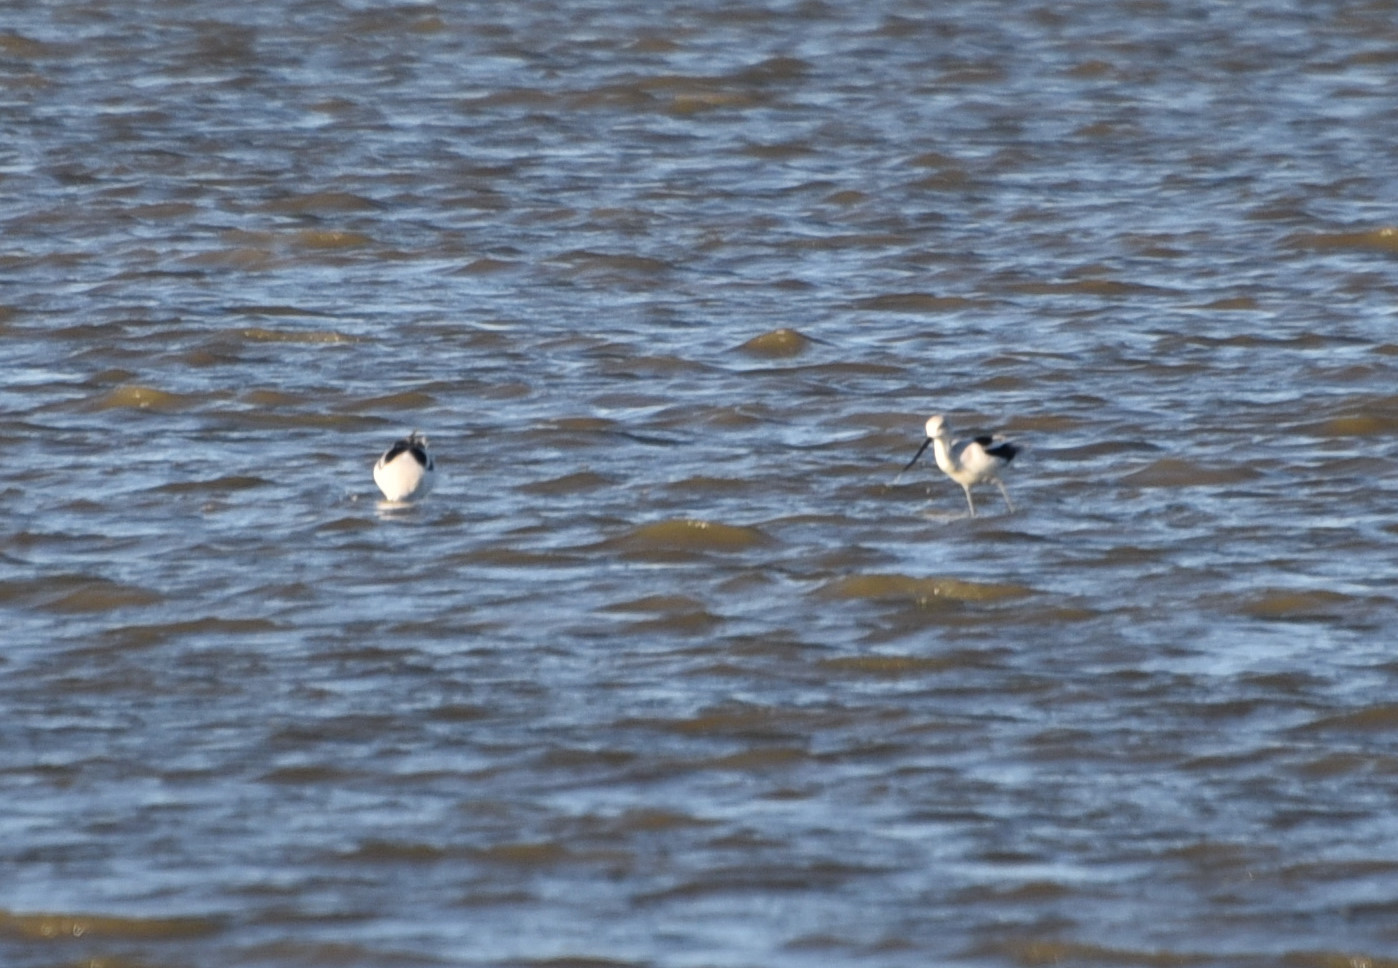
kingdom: Animalia
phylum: Chordata
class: Aves
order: Charadriiformes
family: Recurvirostridae
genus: Recurvirostra
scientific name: Recurvirostra americana
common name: American avocet
